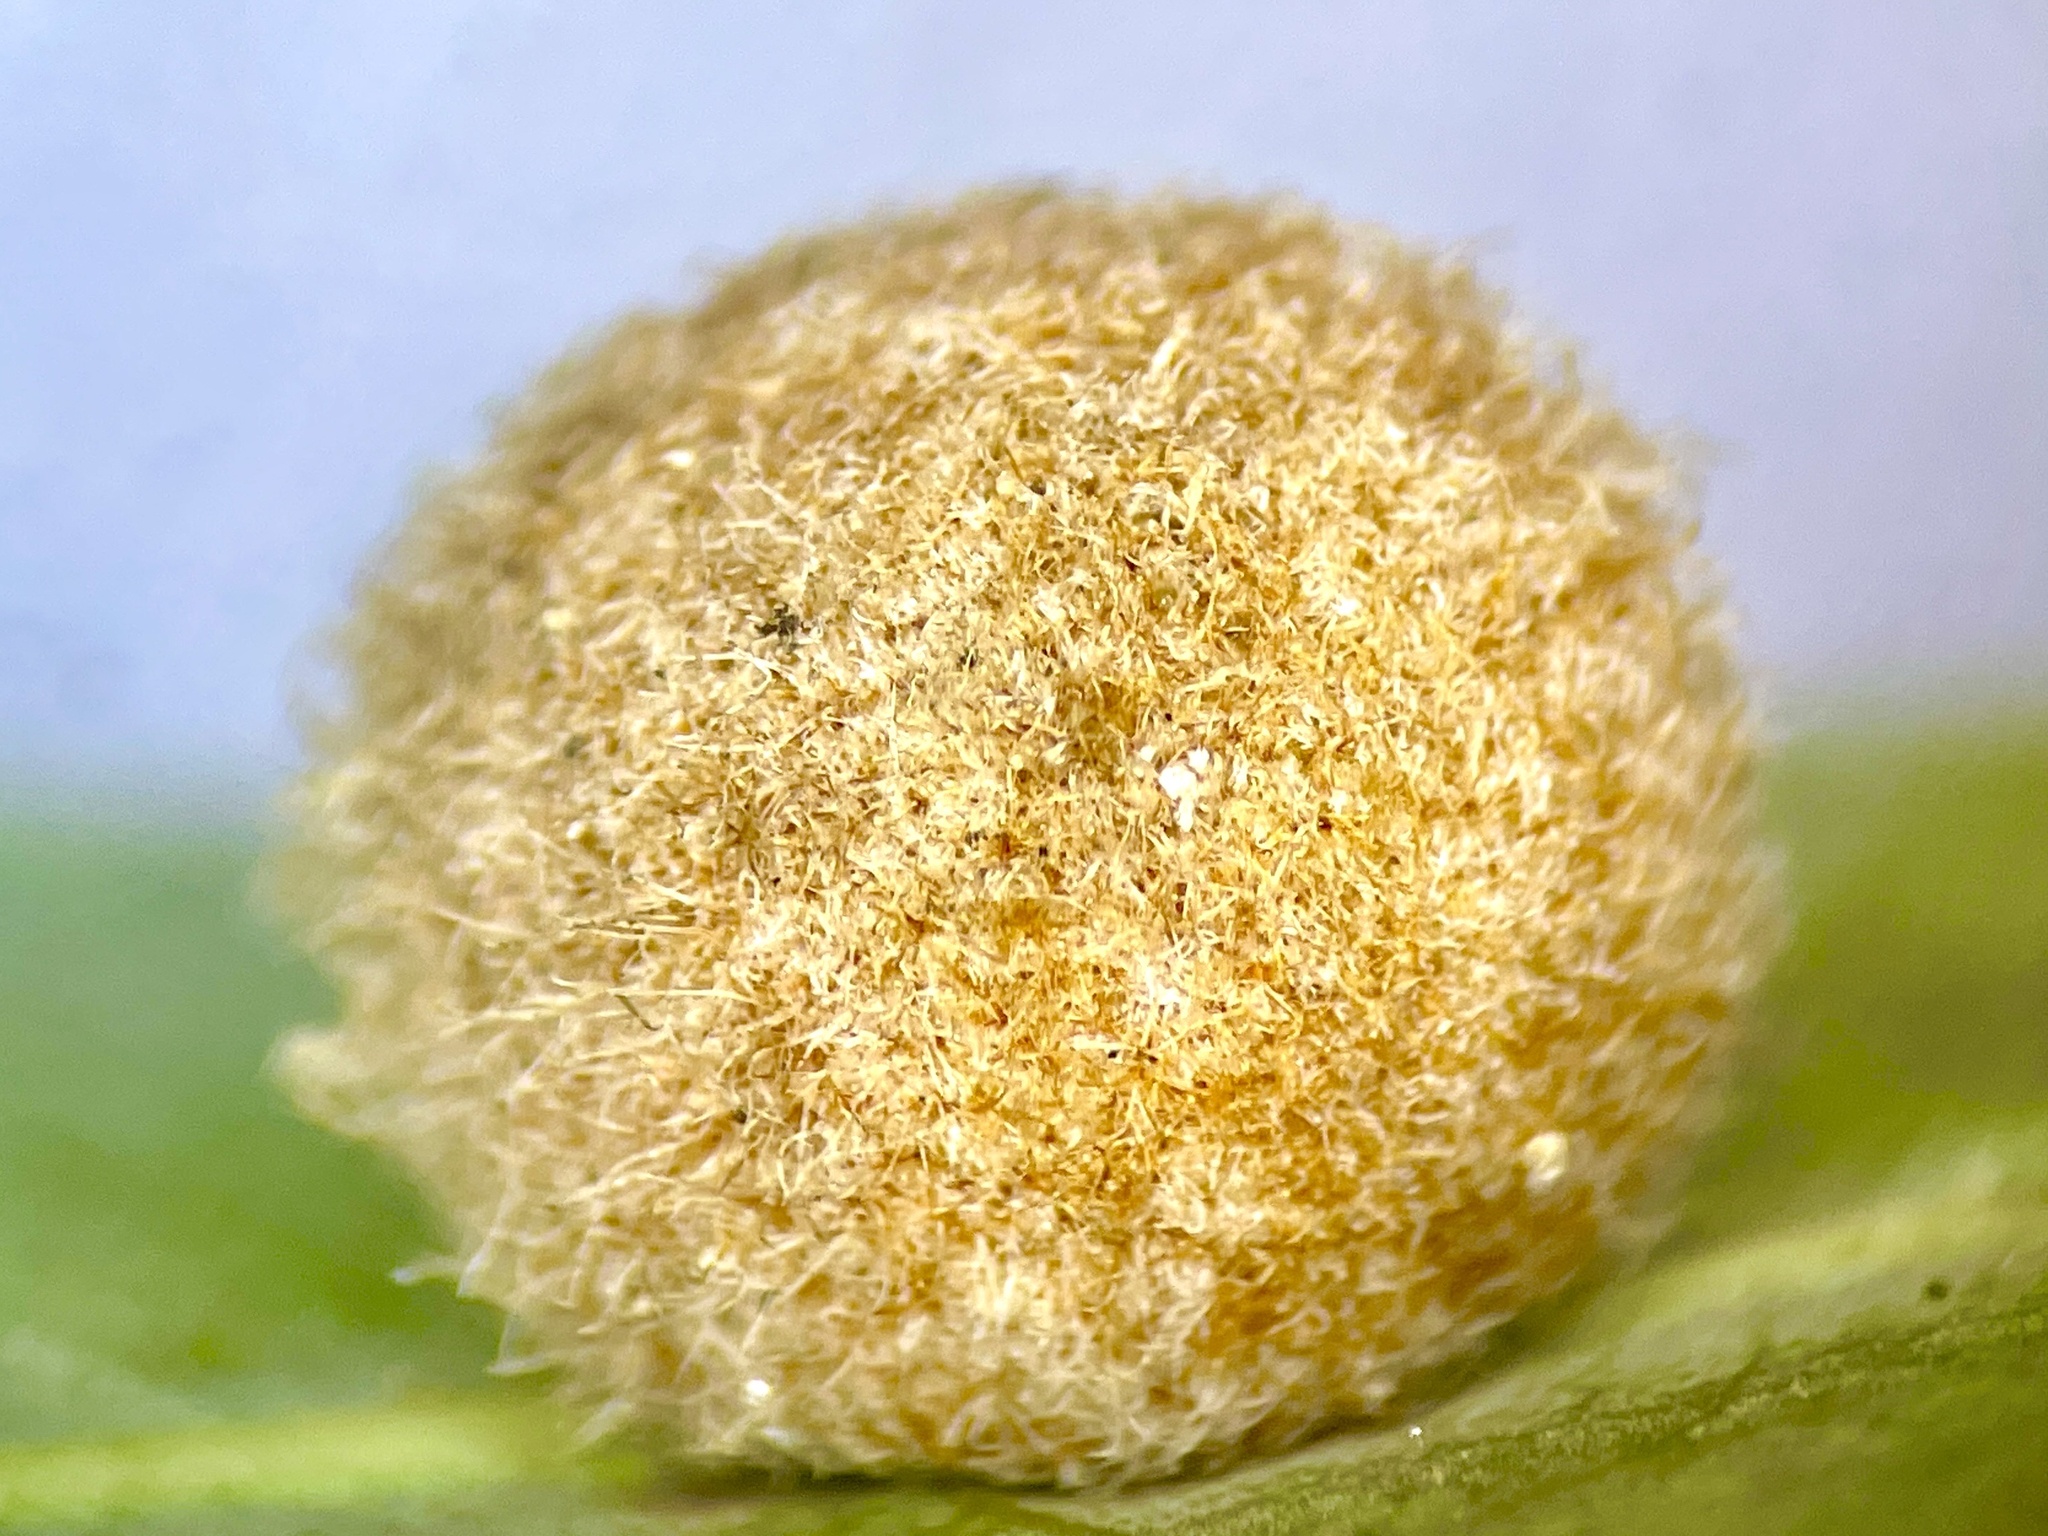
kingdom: Animalia
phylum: Arthropoda
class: Insecta
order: Hymenoptera
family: Cynipidae
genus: Philonix
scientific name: Philonix fulvicollis
